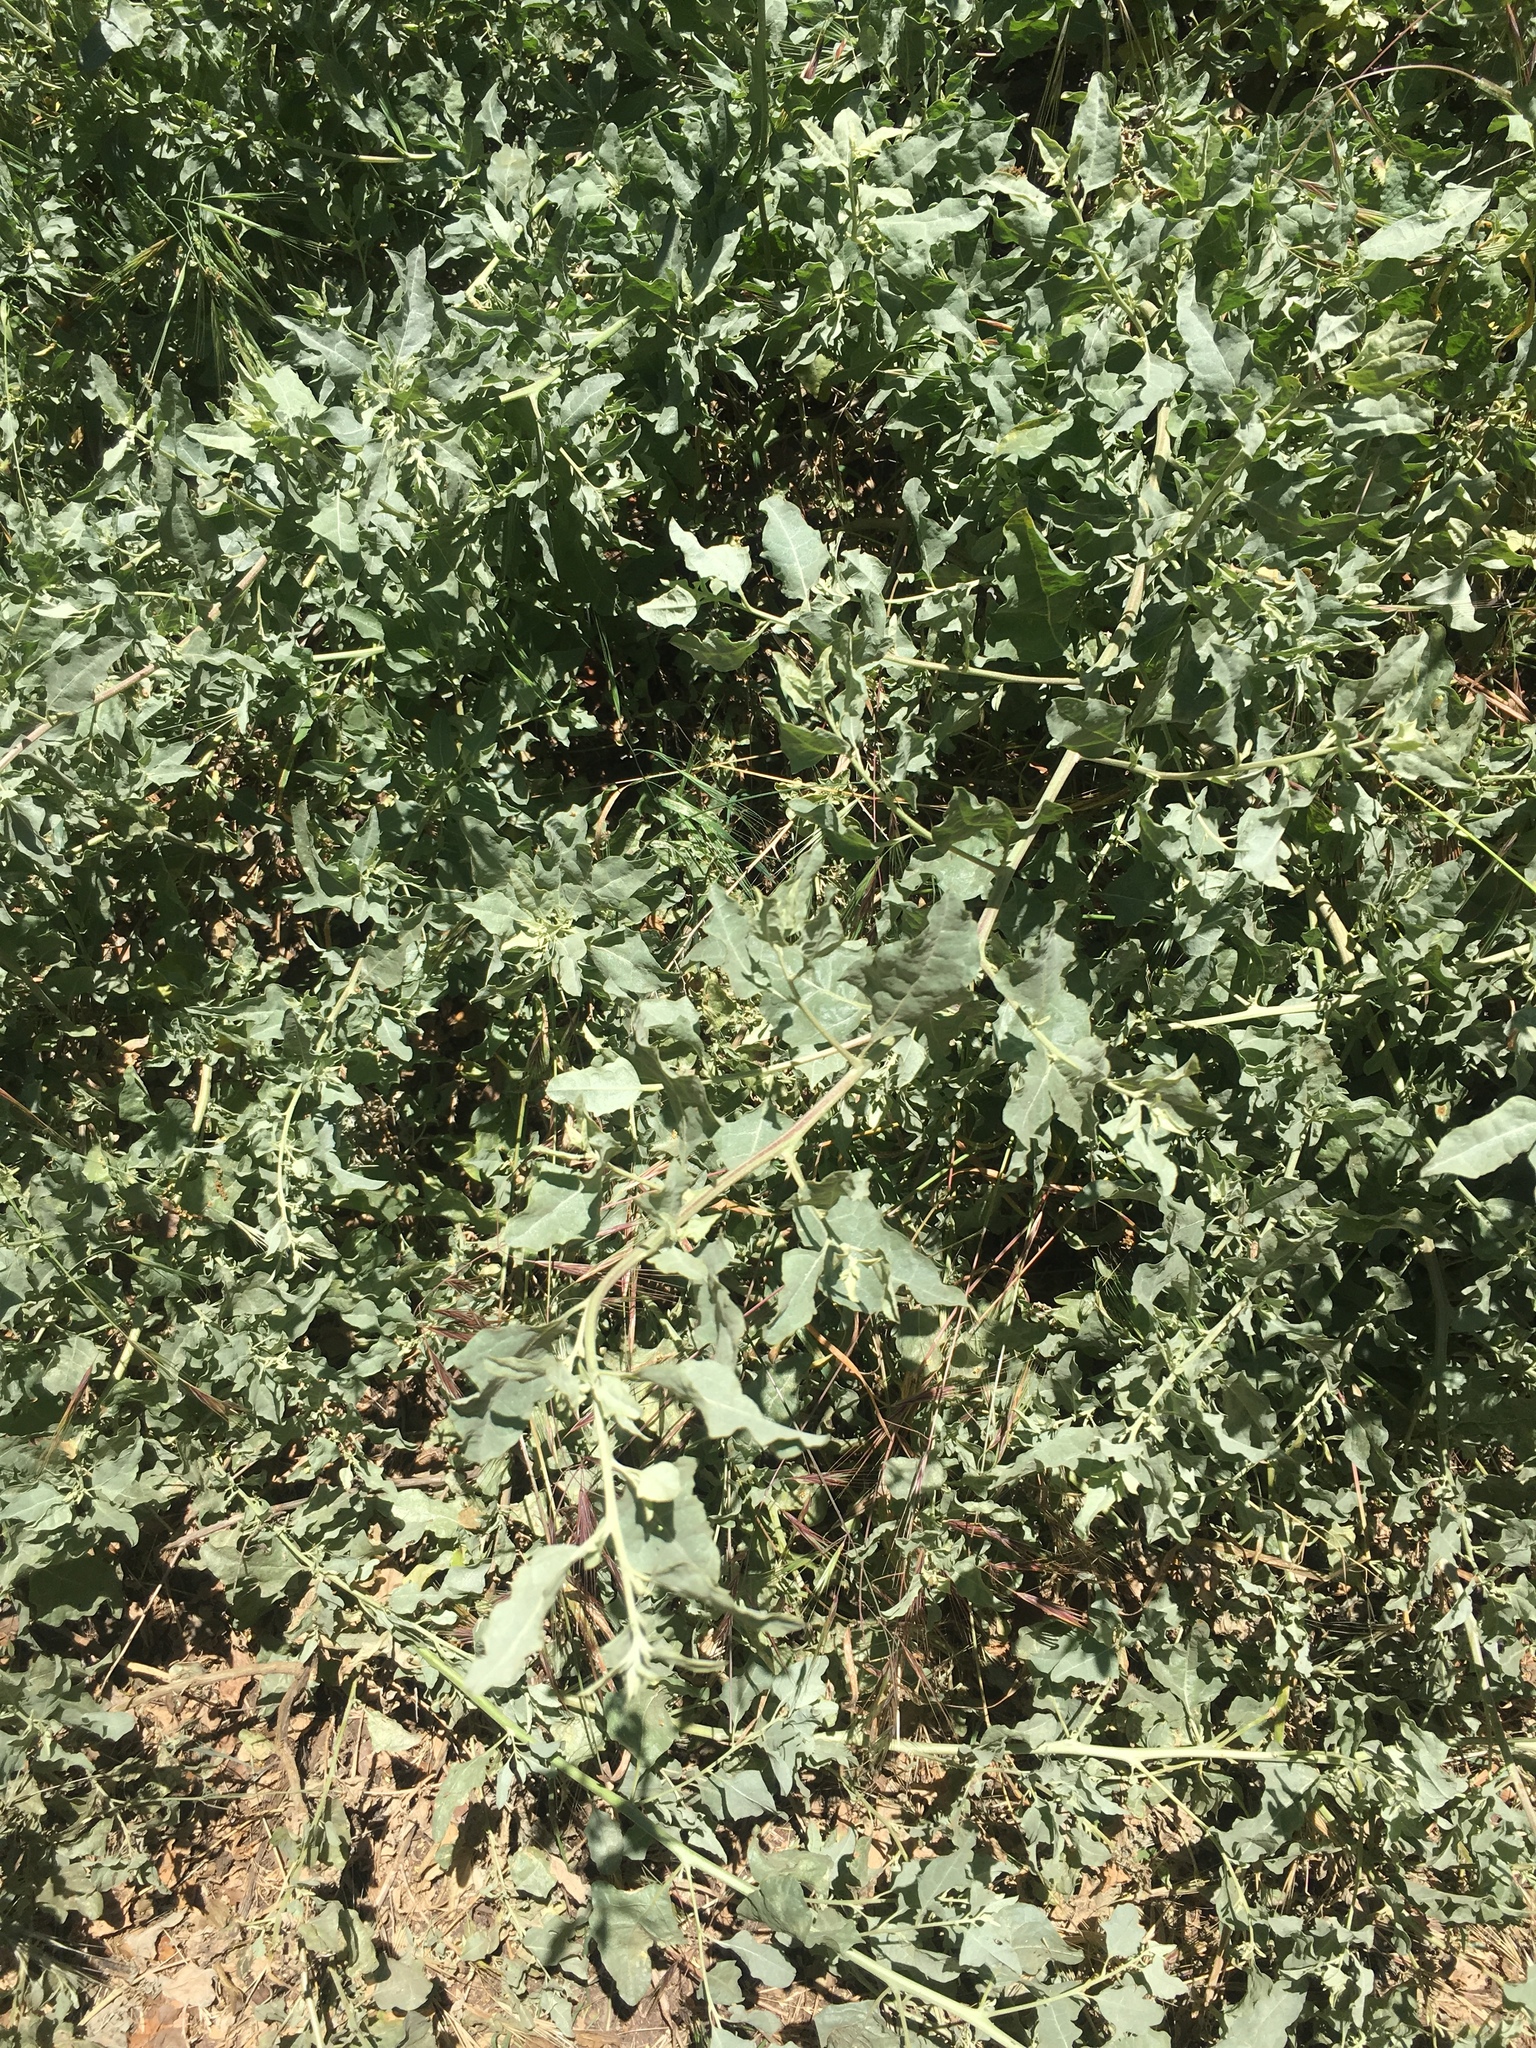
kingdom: Plantae
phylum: Tracheophyta
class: Magnoliopsida
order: Caryophyllales
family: Amaranthaceae
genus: Atriplex
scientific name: Atriplex lentiformis
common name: Big saltbush
